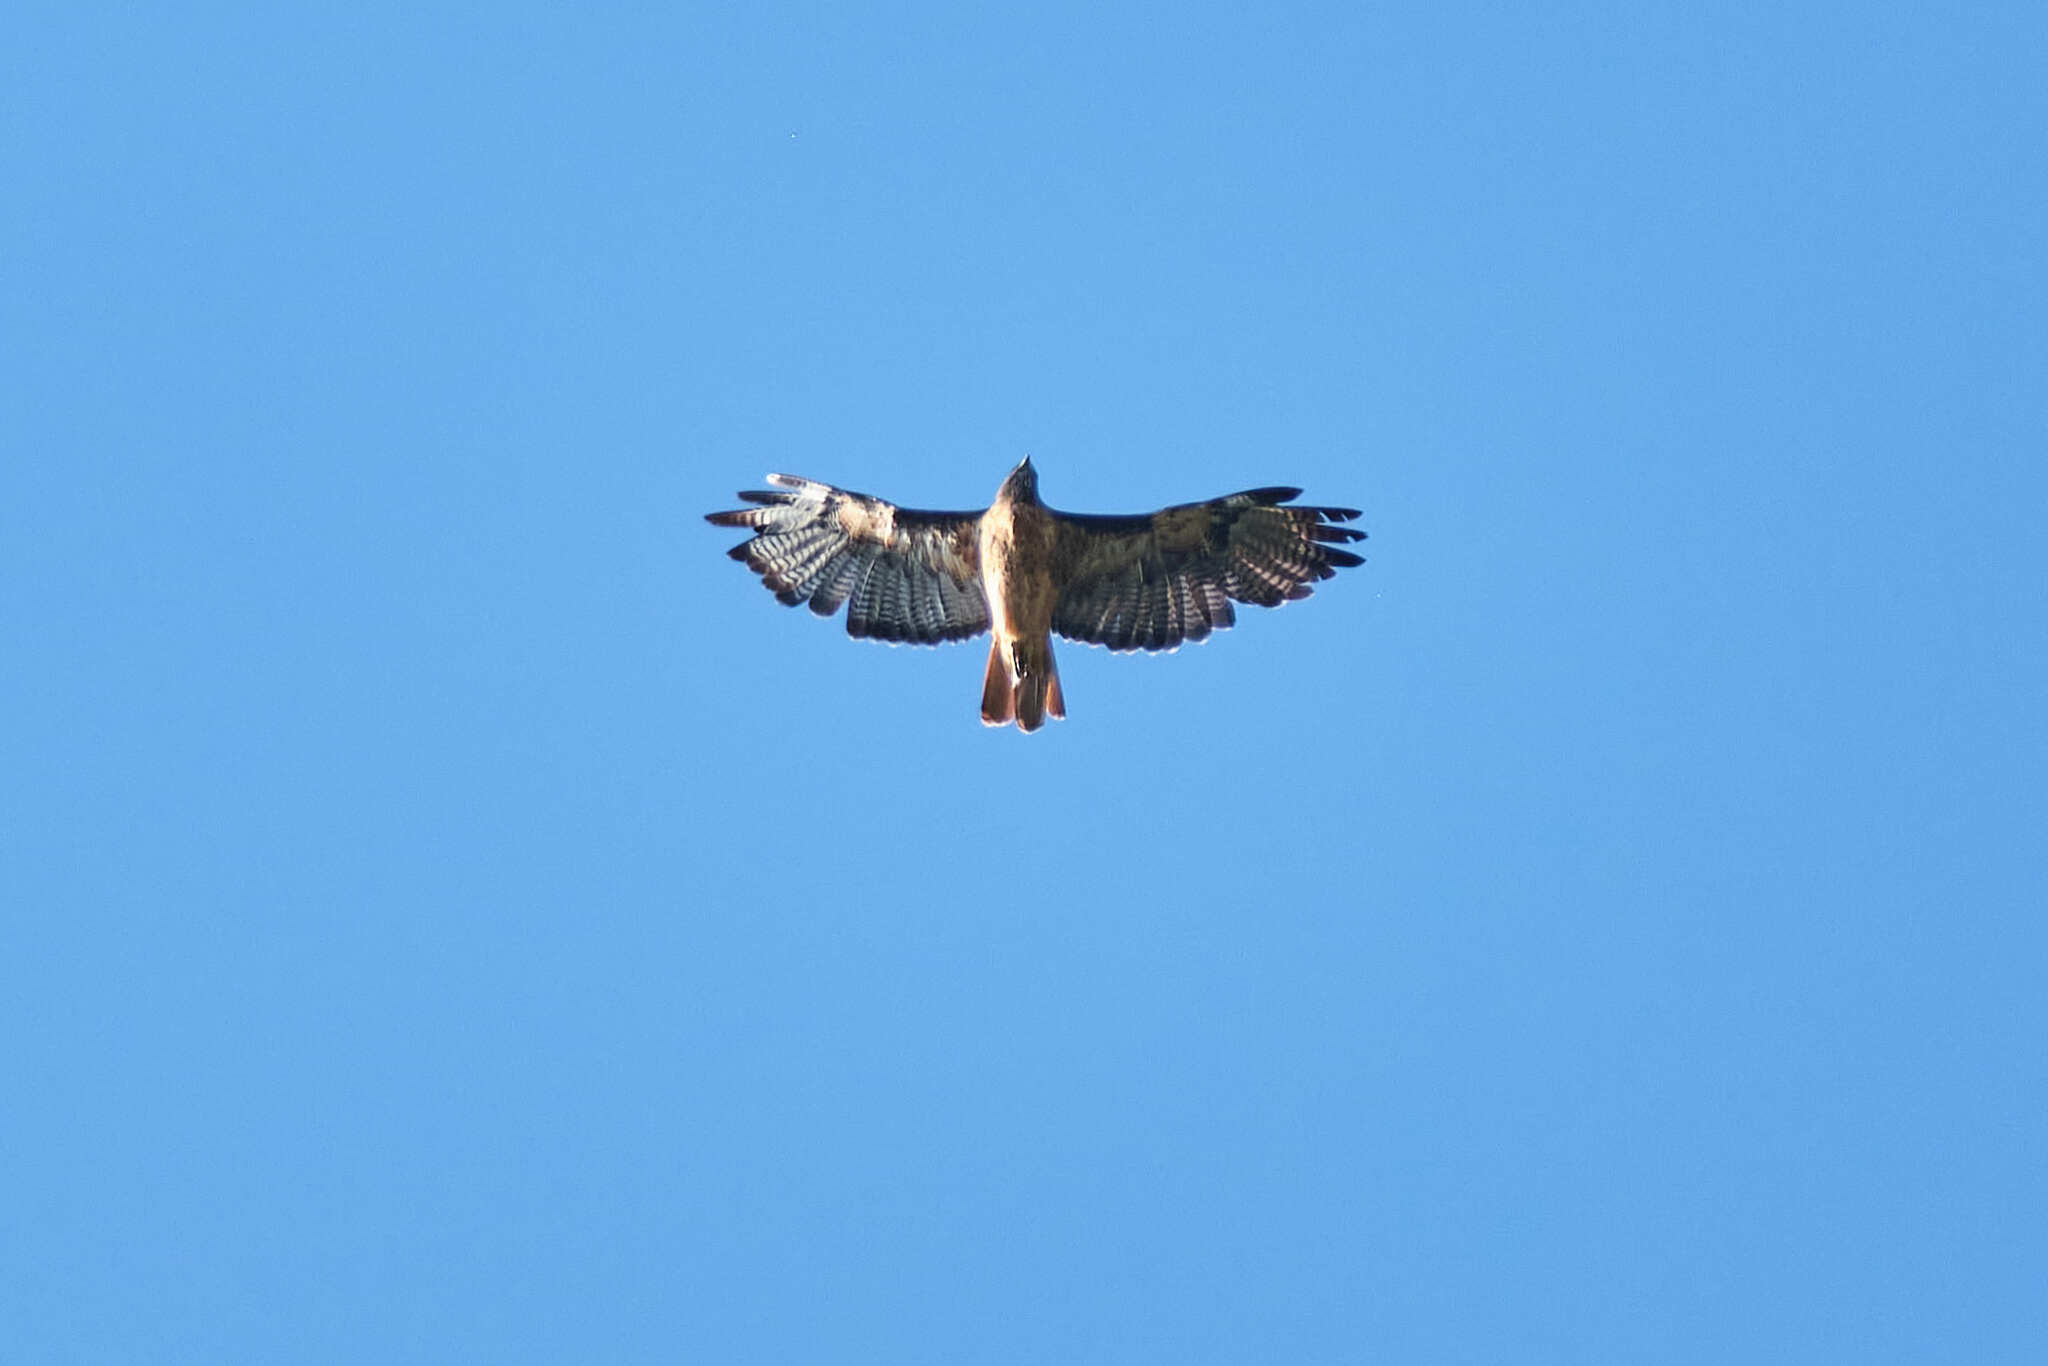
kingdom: Animalia
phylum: Chordata
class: Aves
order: Accipitriformes
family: Accipitridae
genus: Buteo
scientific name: Buteo jamaicensis
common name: Red-tailed hawk
